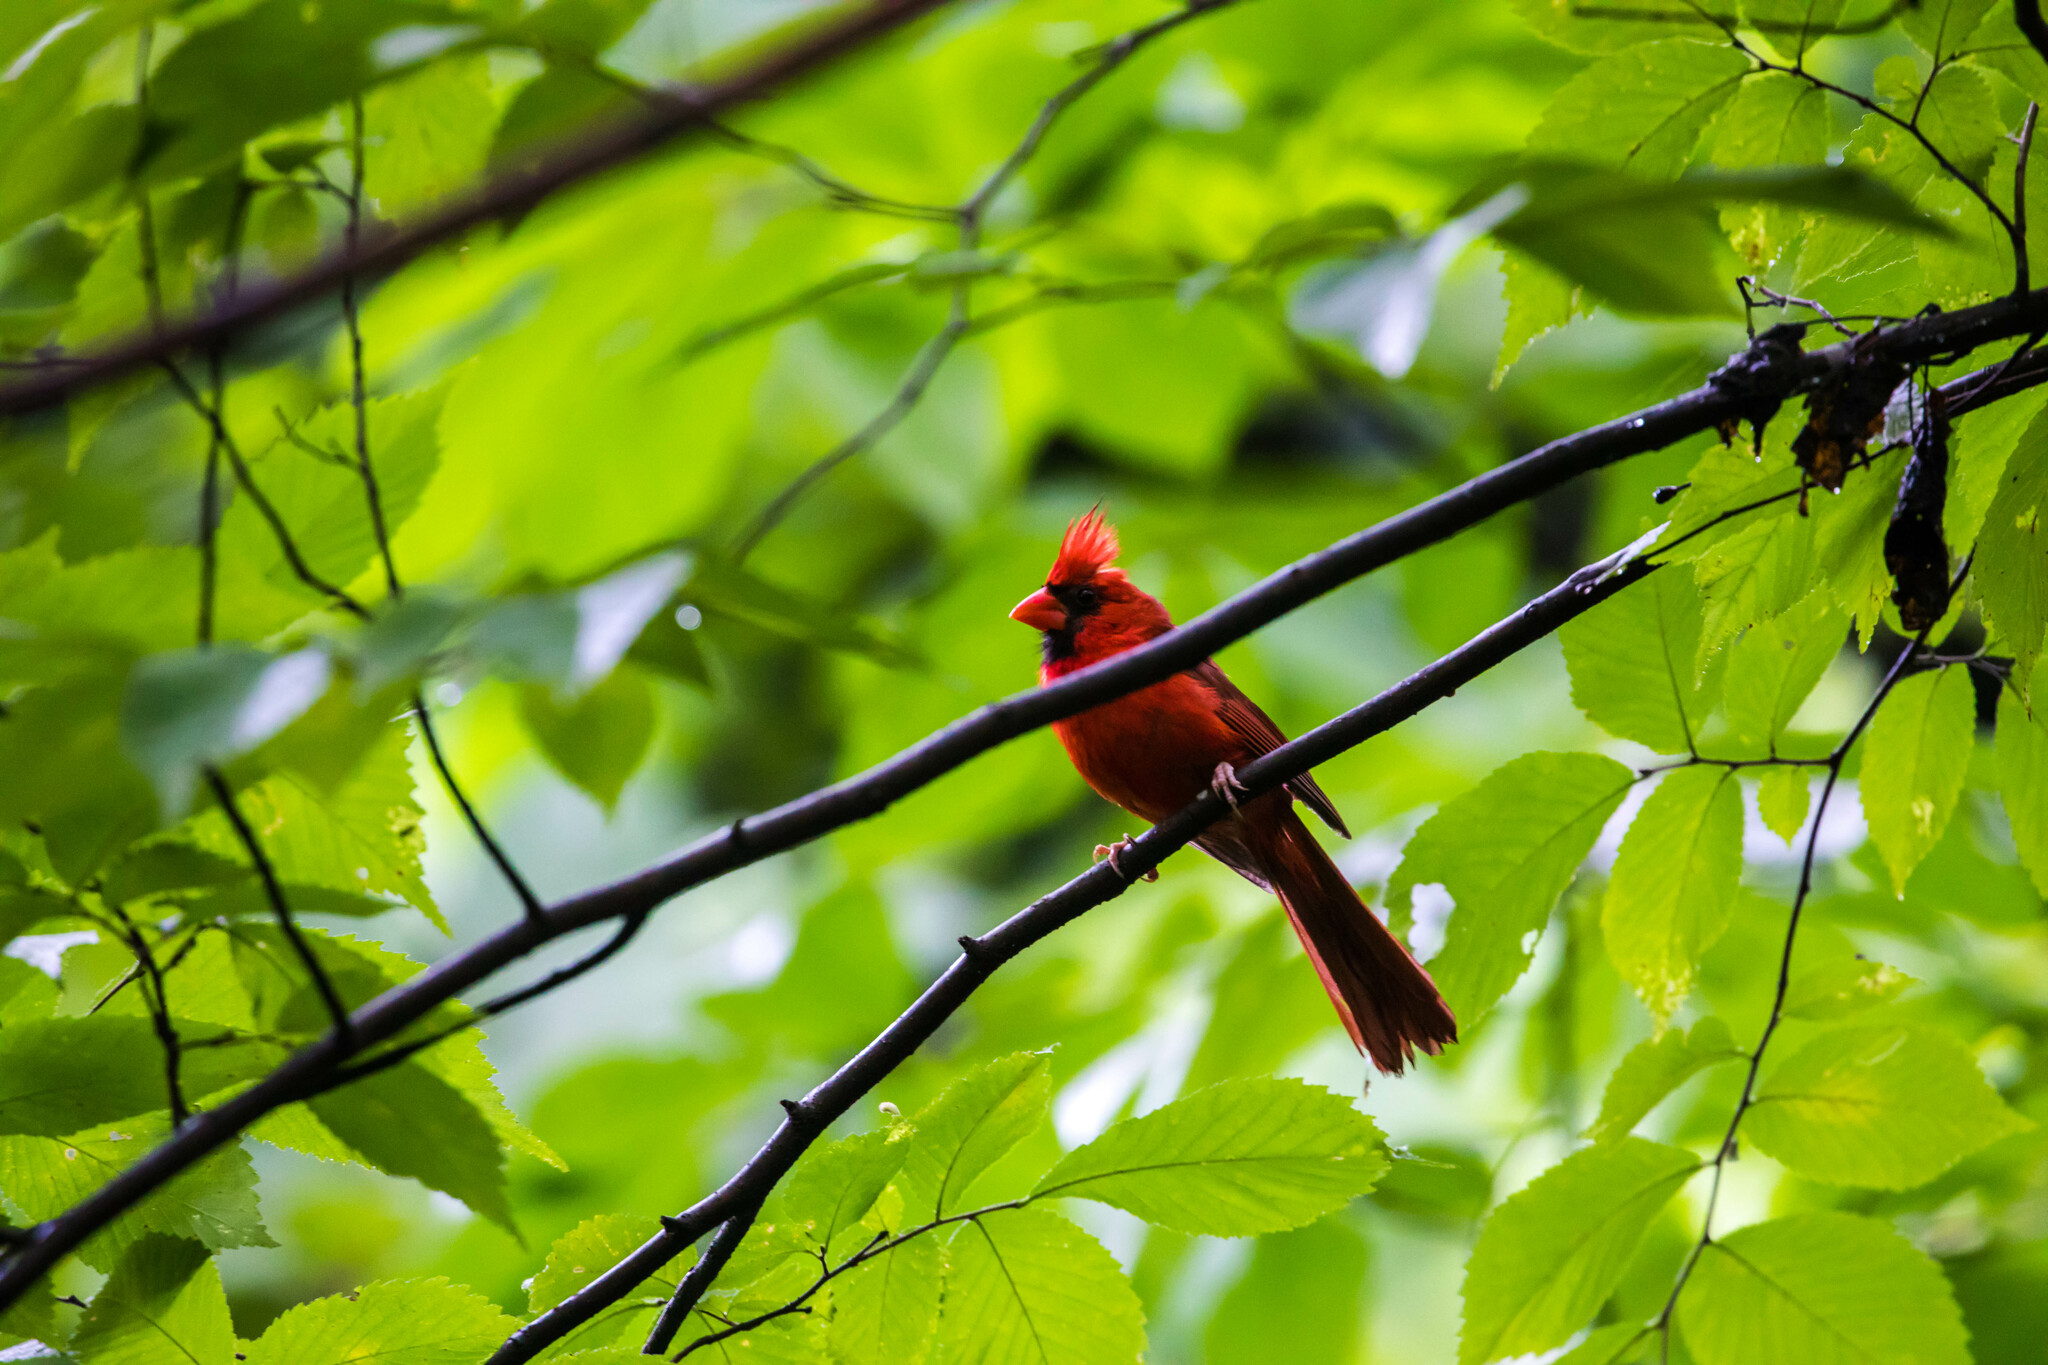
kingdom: Animalia
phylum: Chordata
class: Aves
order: Passeriformes
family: Cardinalidae
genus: Cardinalis
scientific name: Cardinalis cardinalis
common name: Northern cardinal
